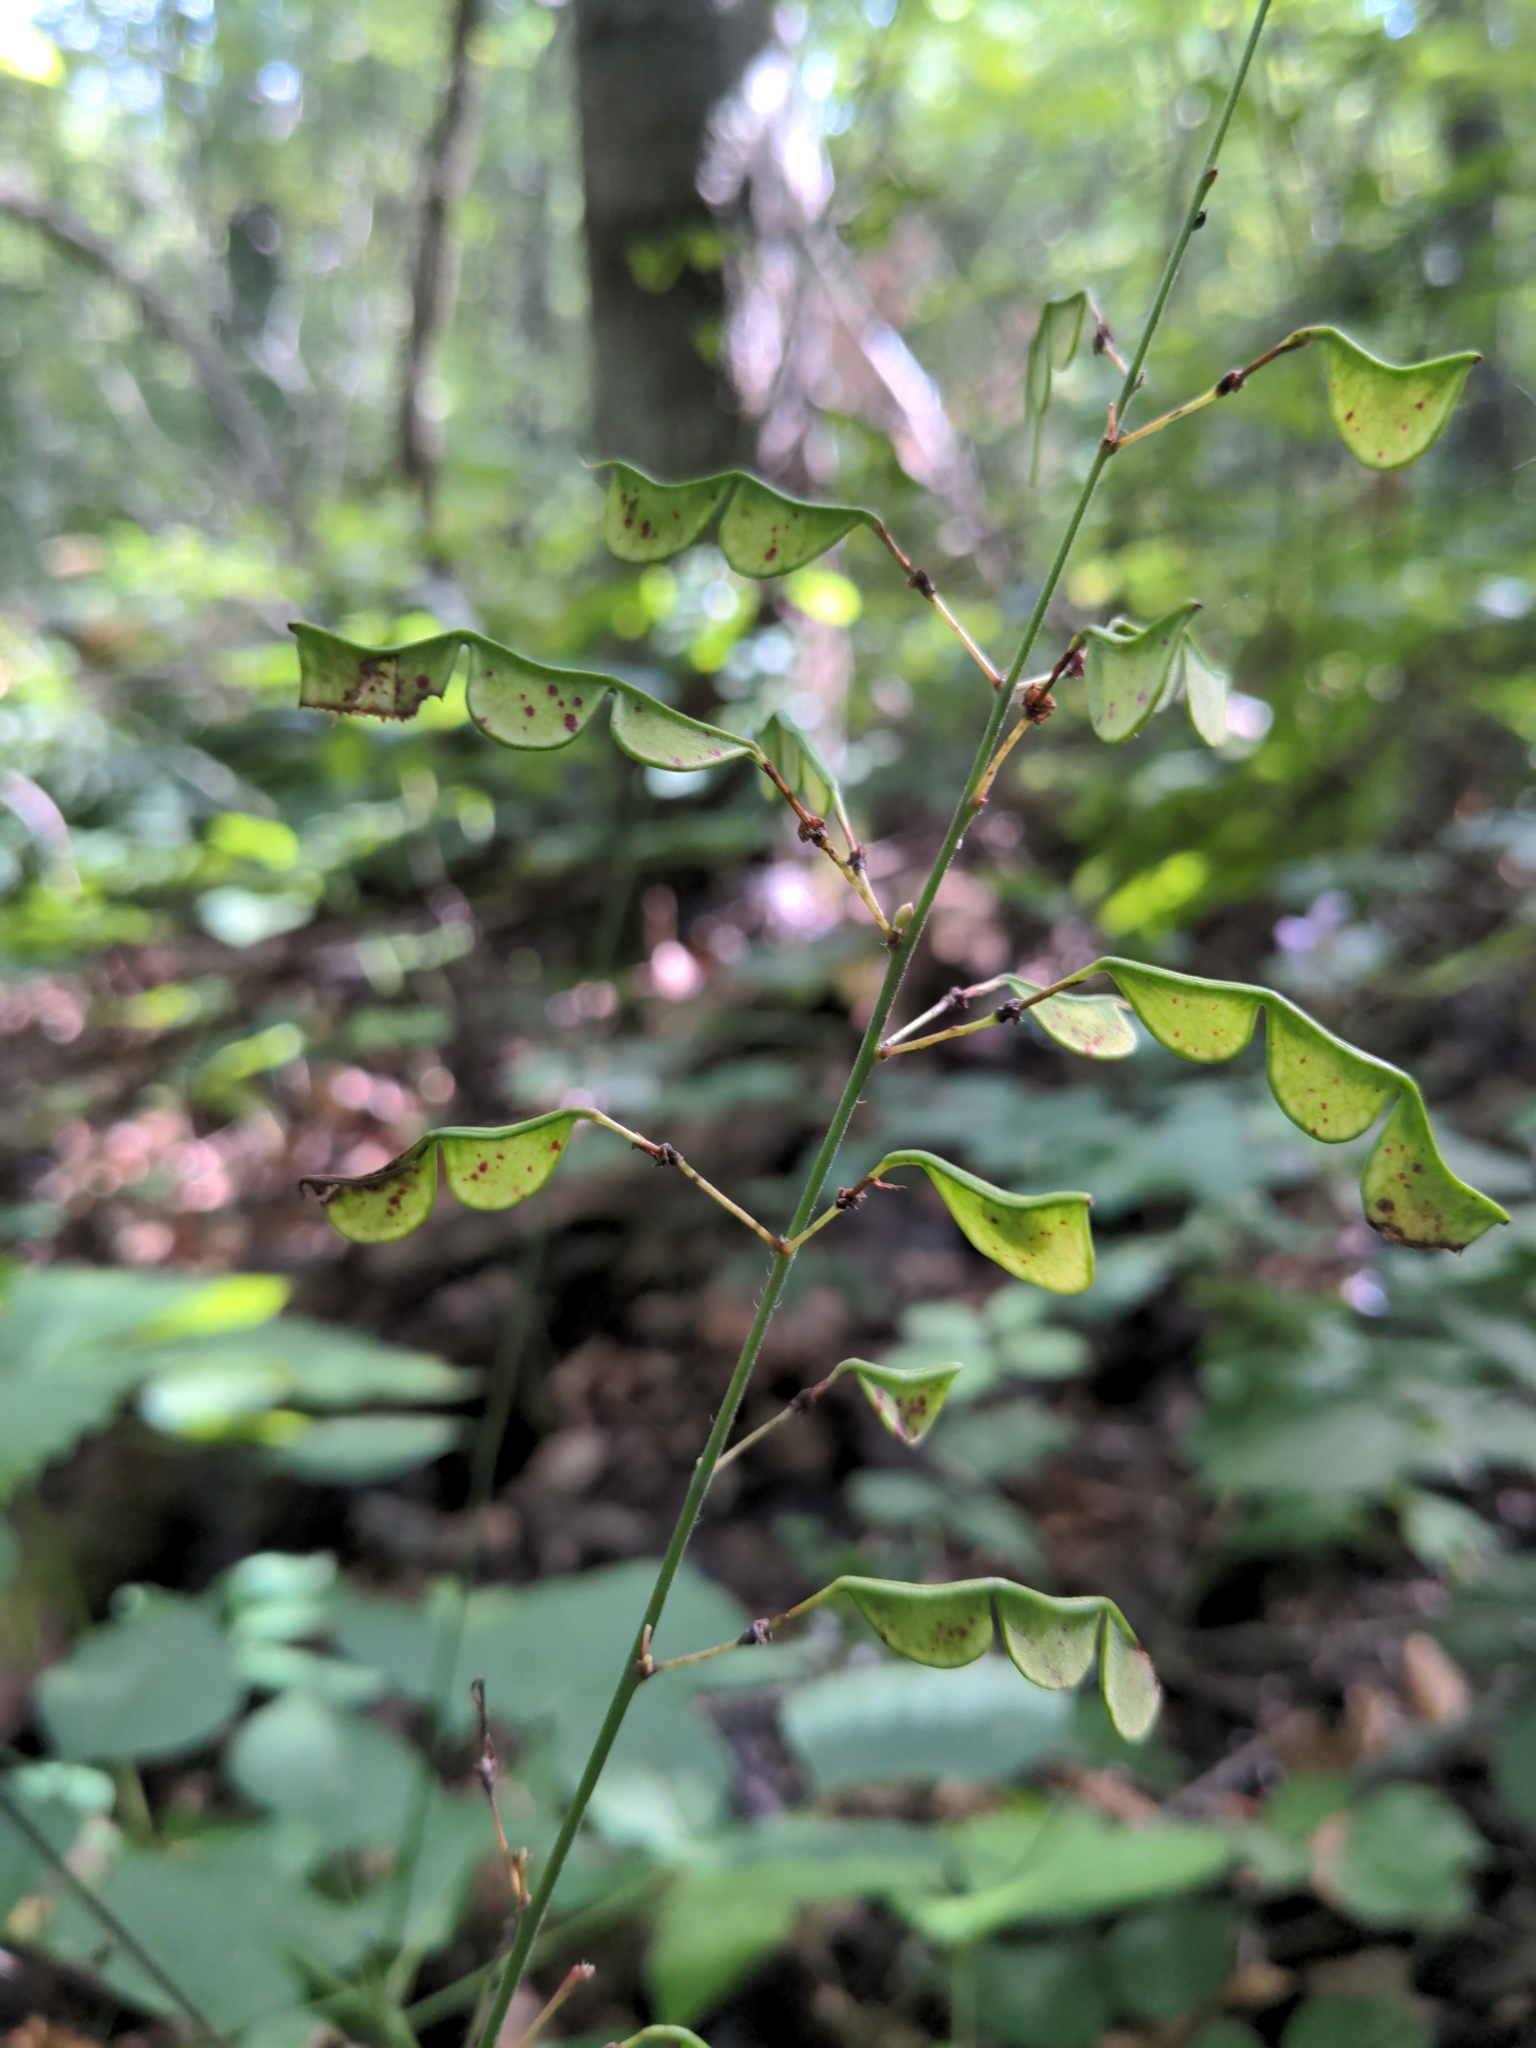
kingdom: Plantae
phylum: Tracheophyta
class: Magnoliopsida
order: Fabales
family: Fabaceae
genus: Hylodesmum
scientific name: Hylodesmum glutinosum
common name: Clustered-leaved tick-trefoil
